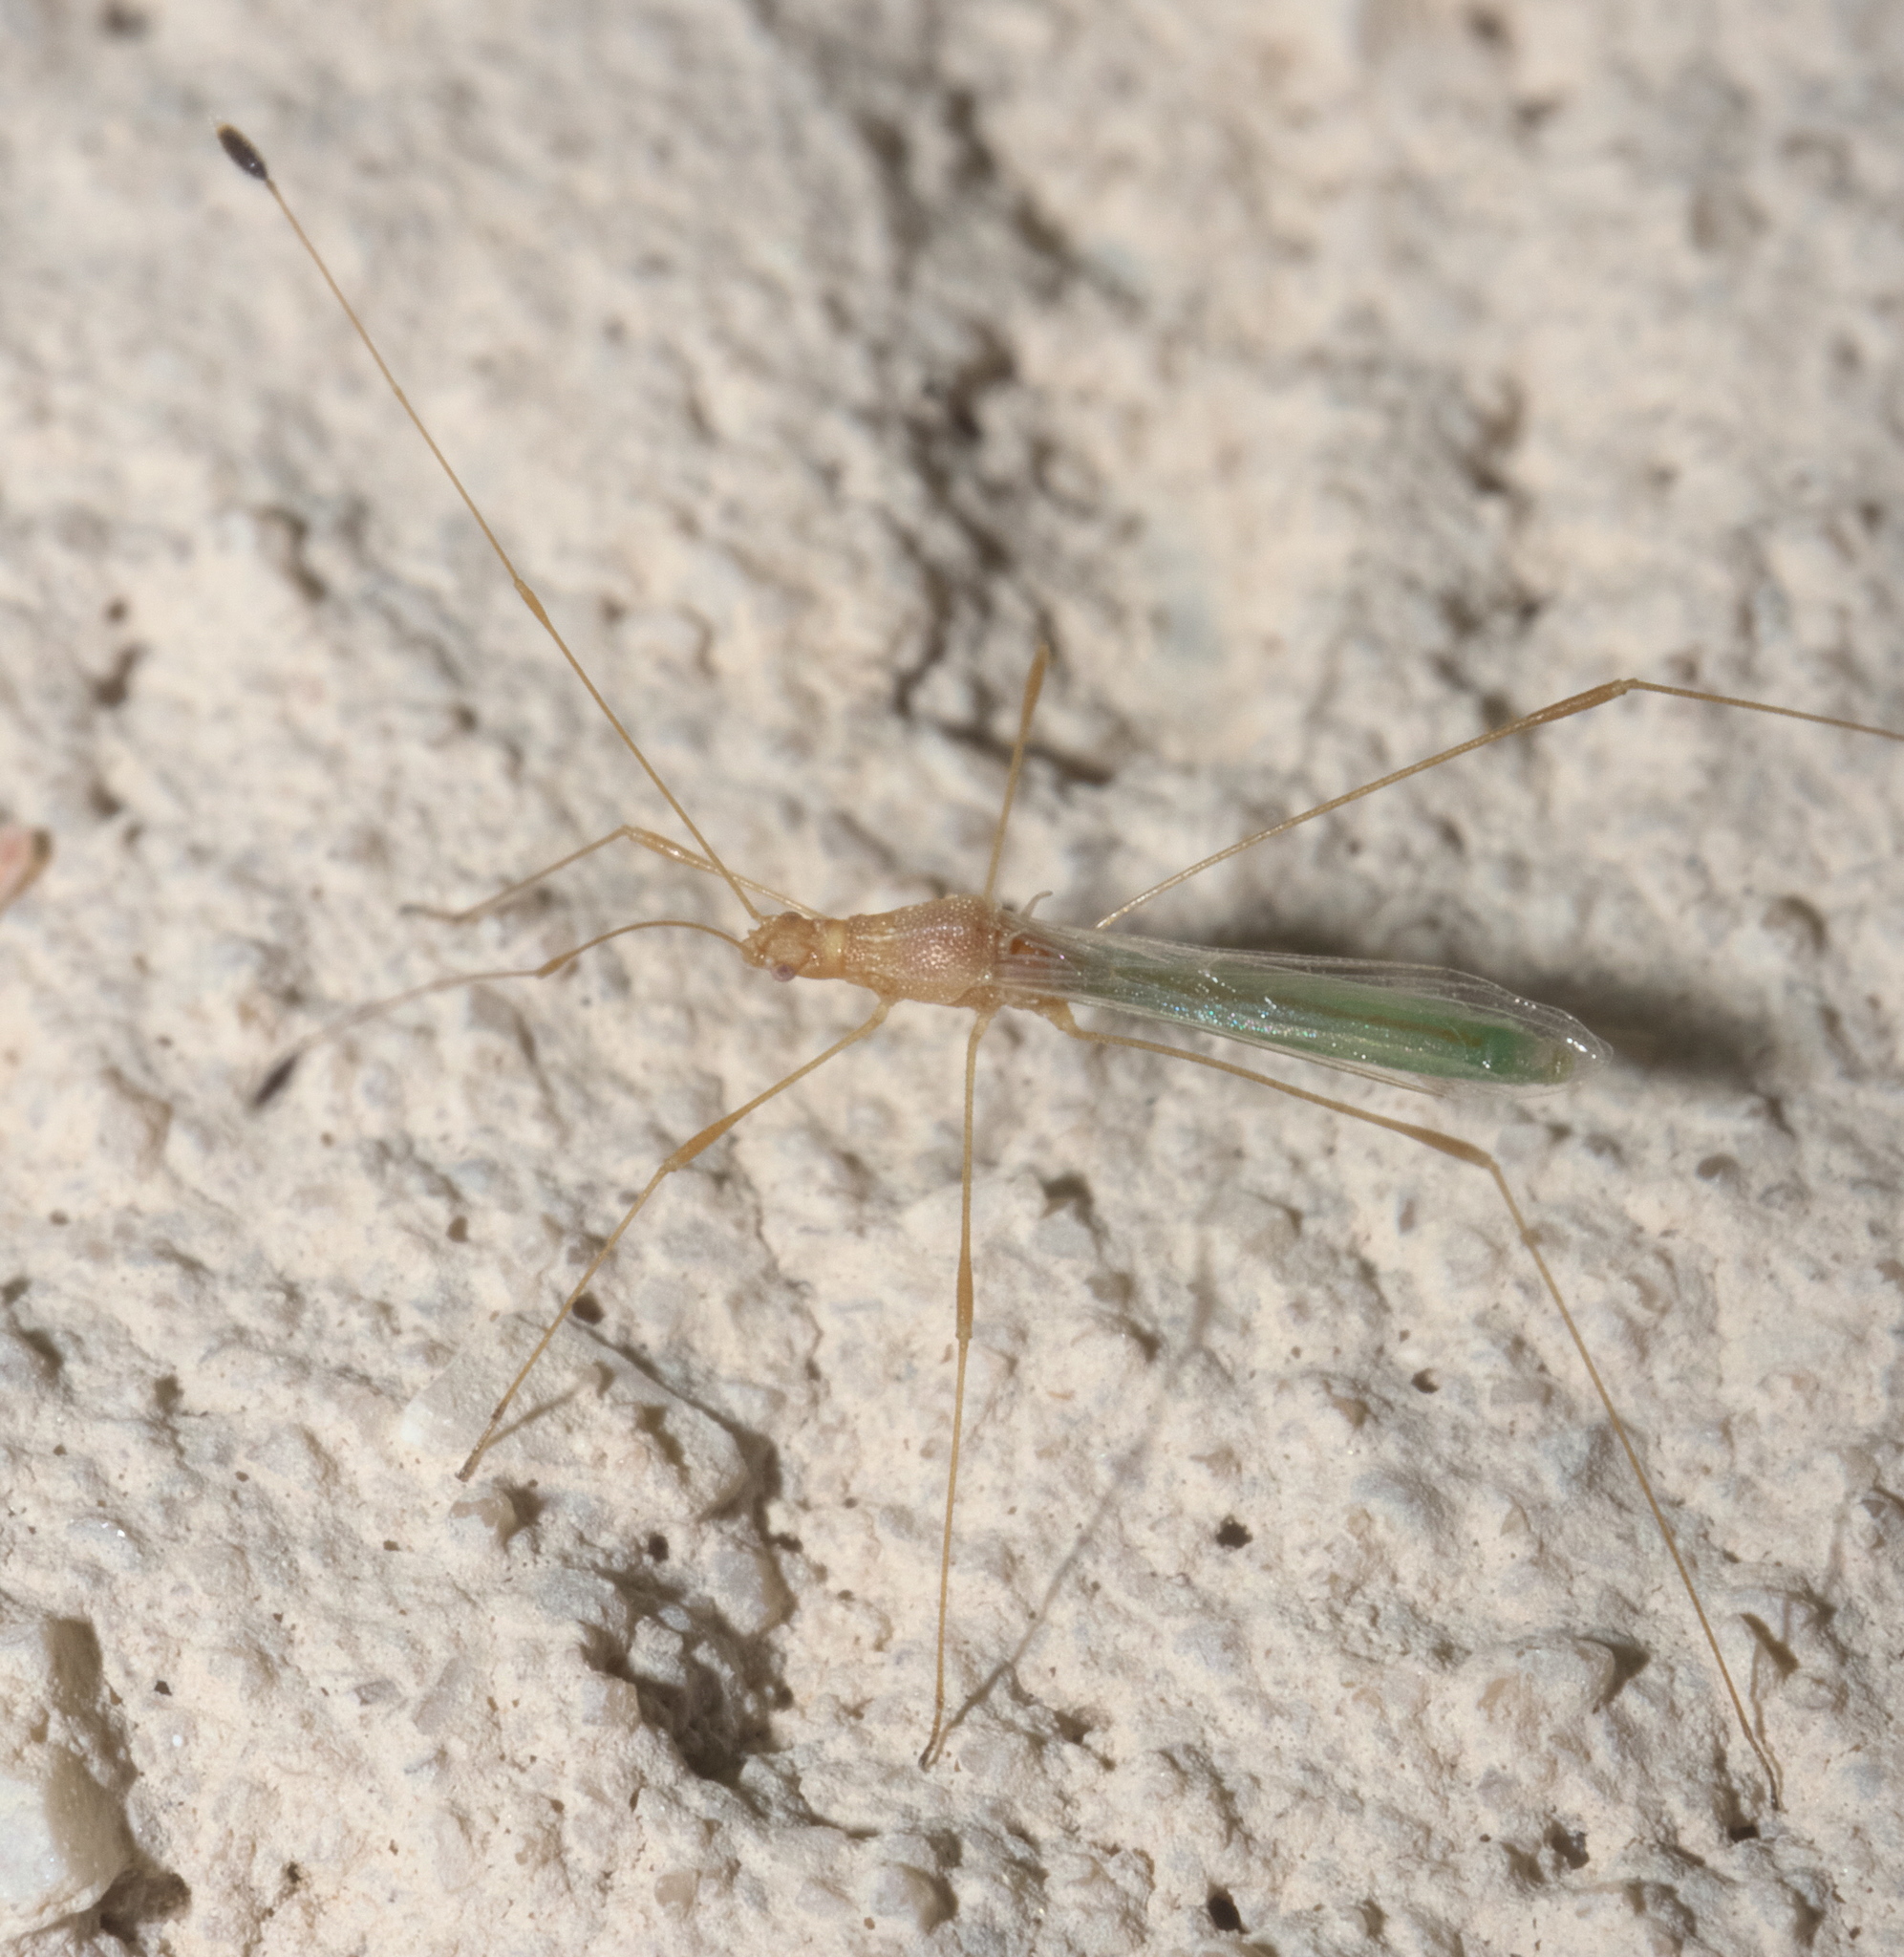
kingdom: Animalia
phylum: Arthropoda
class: Insecta
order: Hemiptera
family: Berytidae
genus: Metacanthus
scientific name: Metacanthus multispinus
